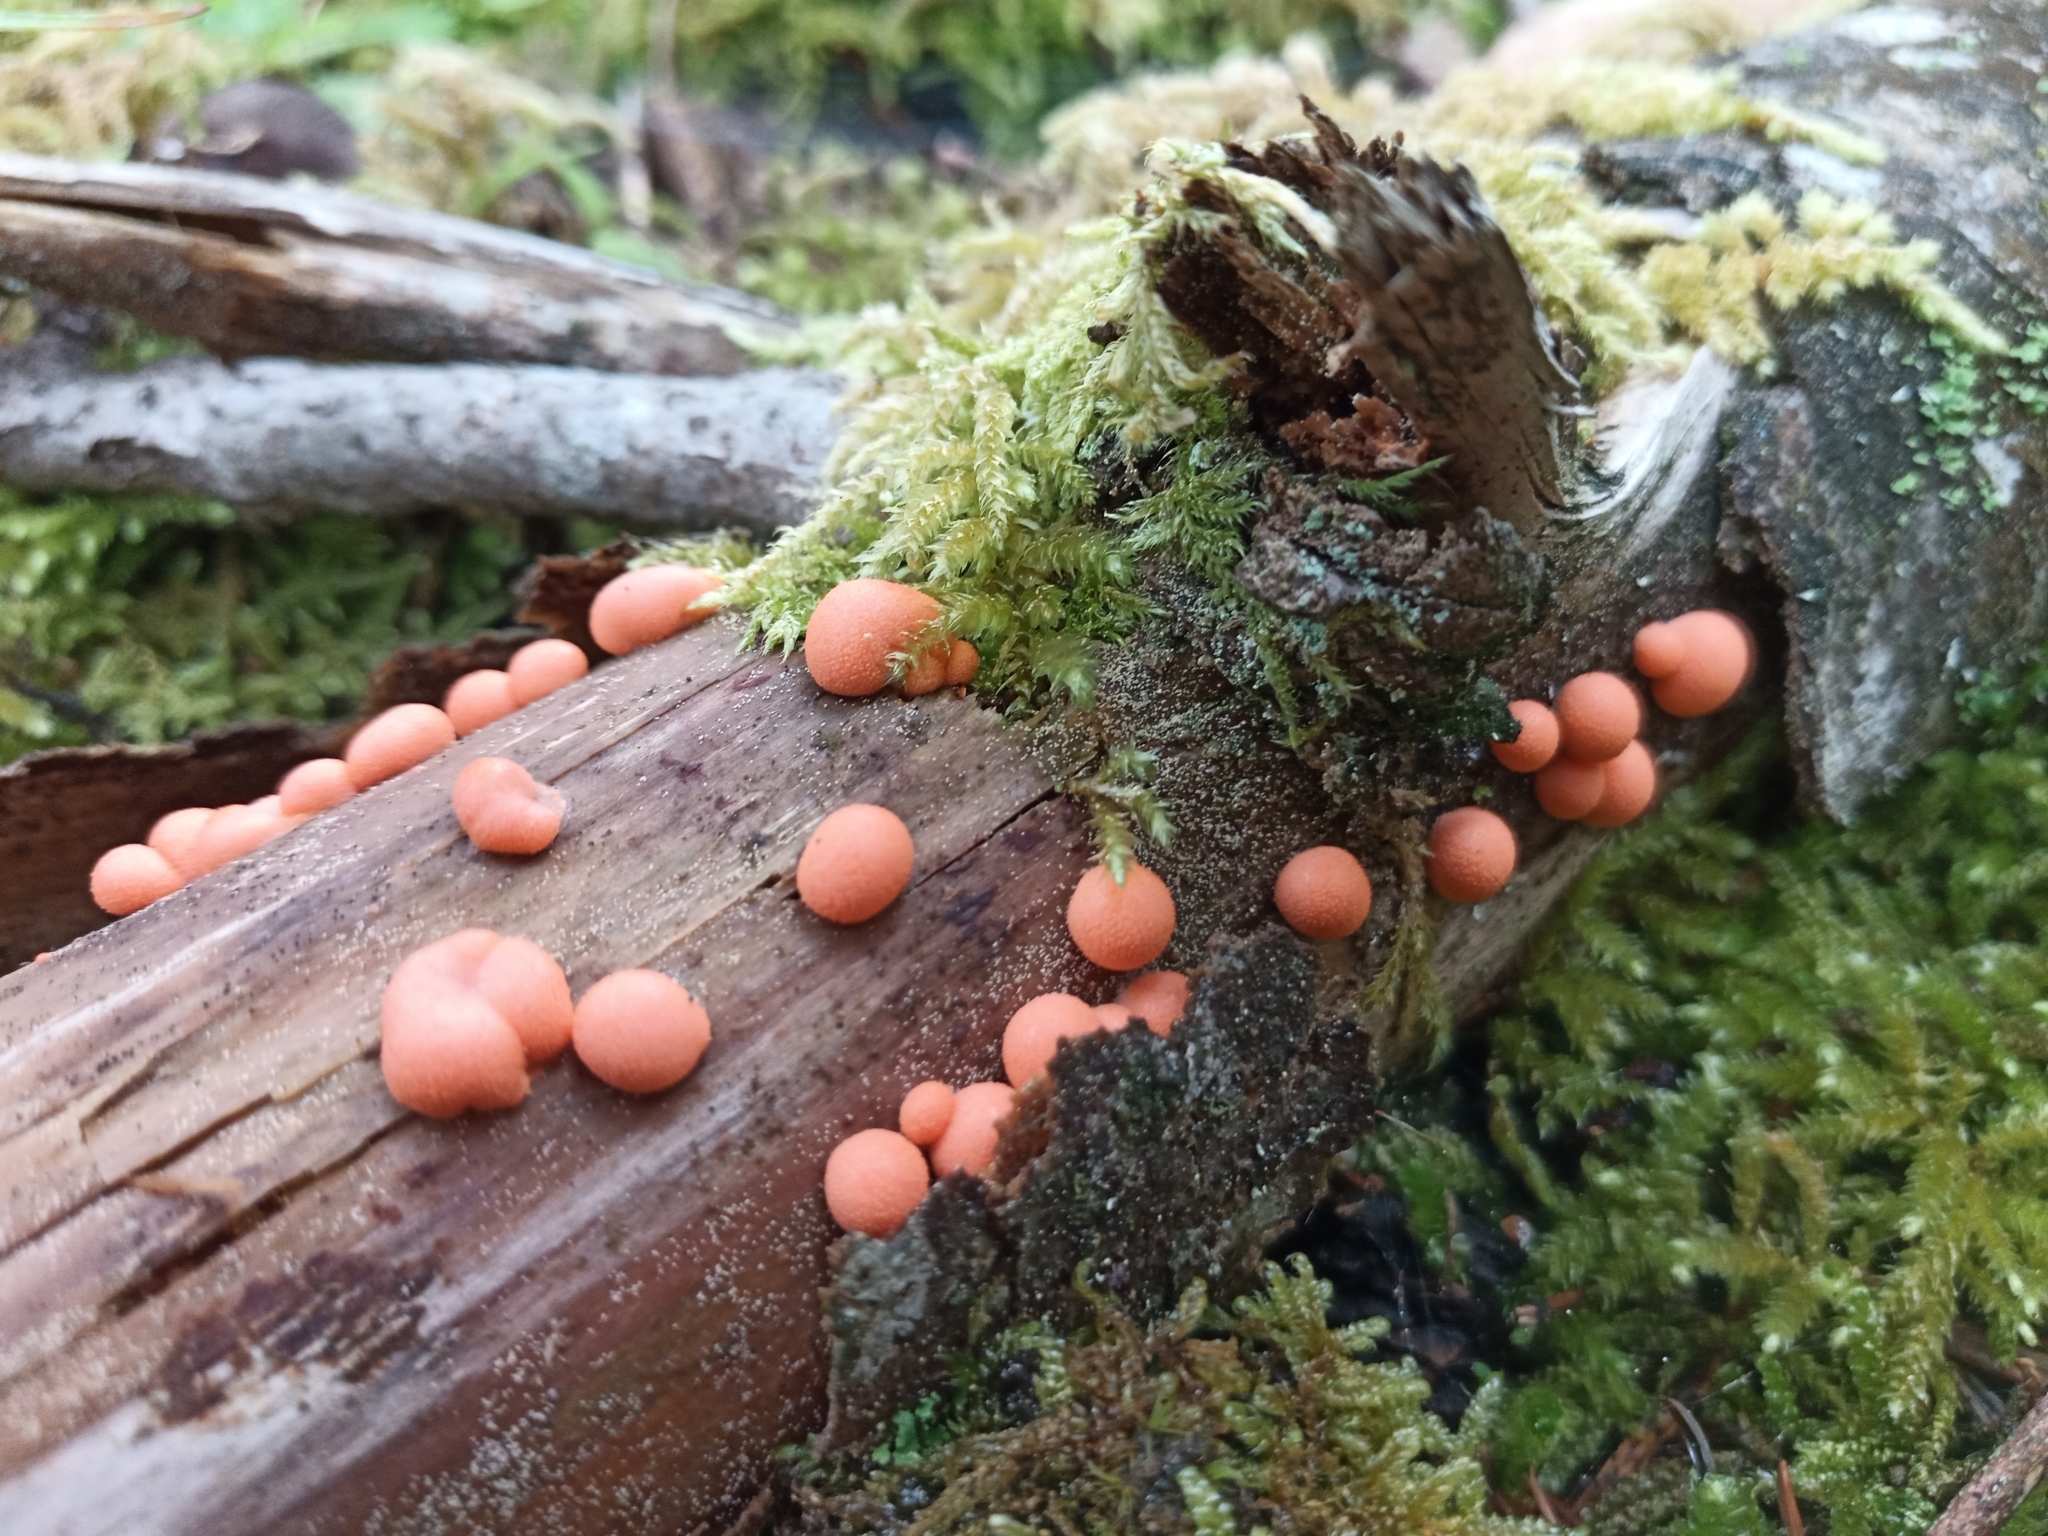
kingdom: Protozoa
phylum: Mycetozoa
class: Myxomycetes
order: Cribrariales
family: Tubiferaceae
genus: Lycogala
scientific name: Lycogala epidendrum
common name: Wolf's milk
